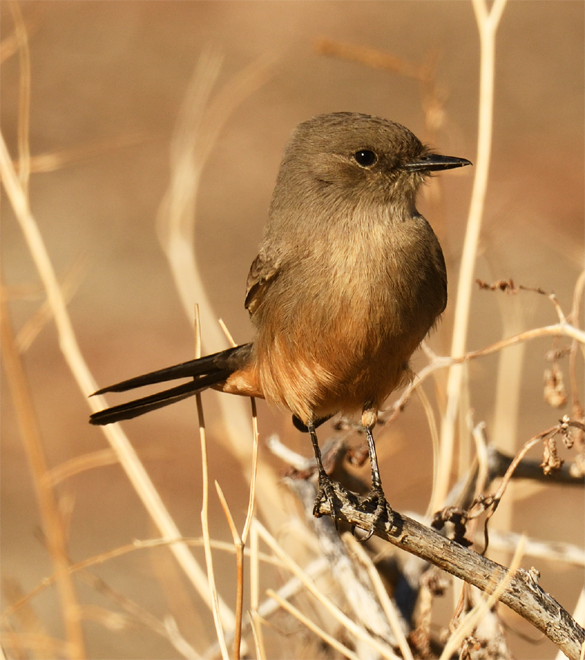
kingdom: Animalia
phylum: Chordata
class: Aves
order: Passeriformes
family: Tyrannidae
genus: Sayornis
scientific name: Sayornis saya
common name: Say's phoebe
